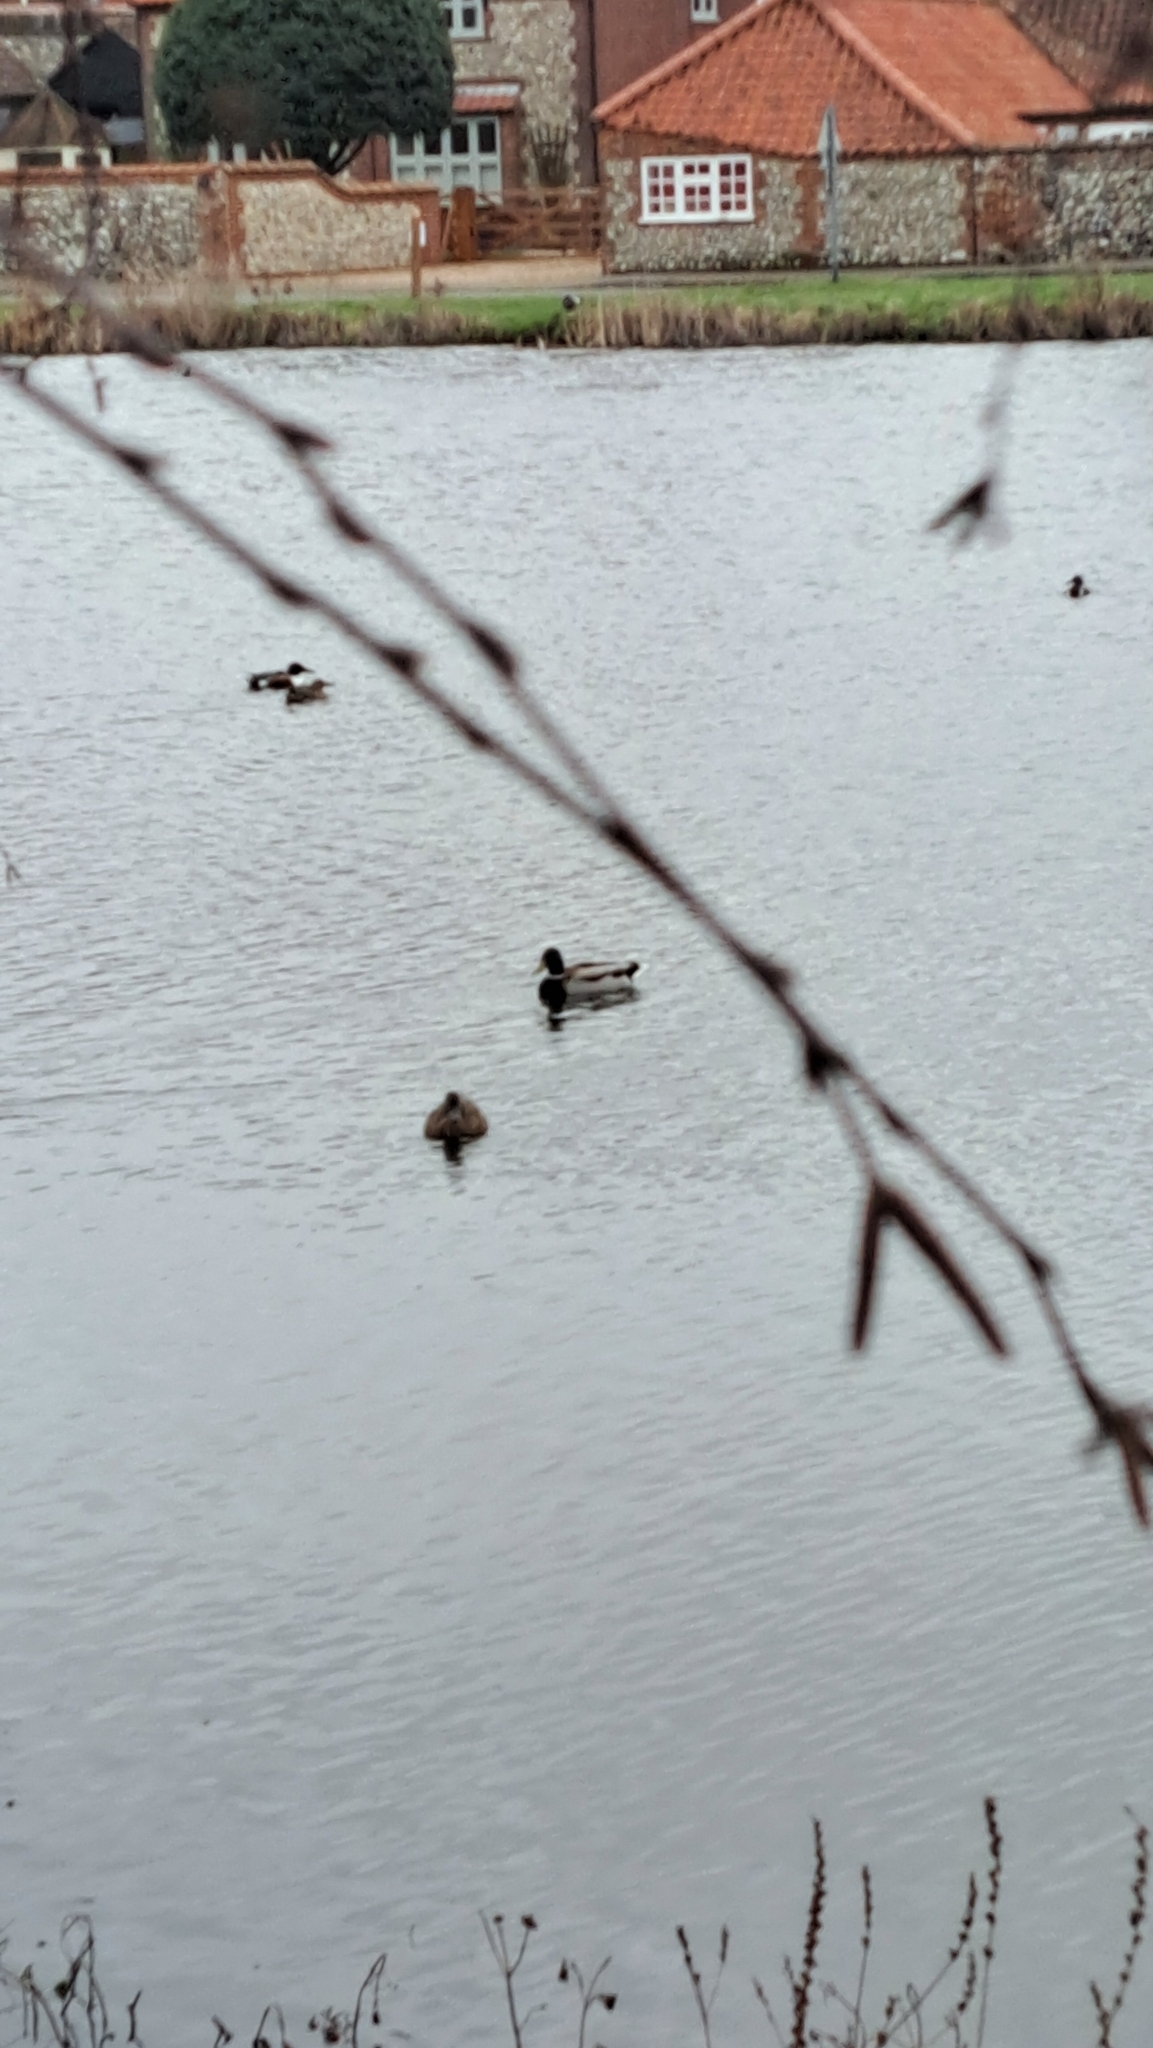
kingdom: Animalia
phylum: Chordata
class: Aves
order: Anseriformes
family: Anatidae
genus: Anas
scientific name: Anas platyrhynchos
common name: Mallard
